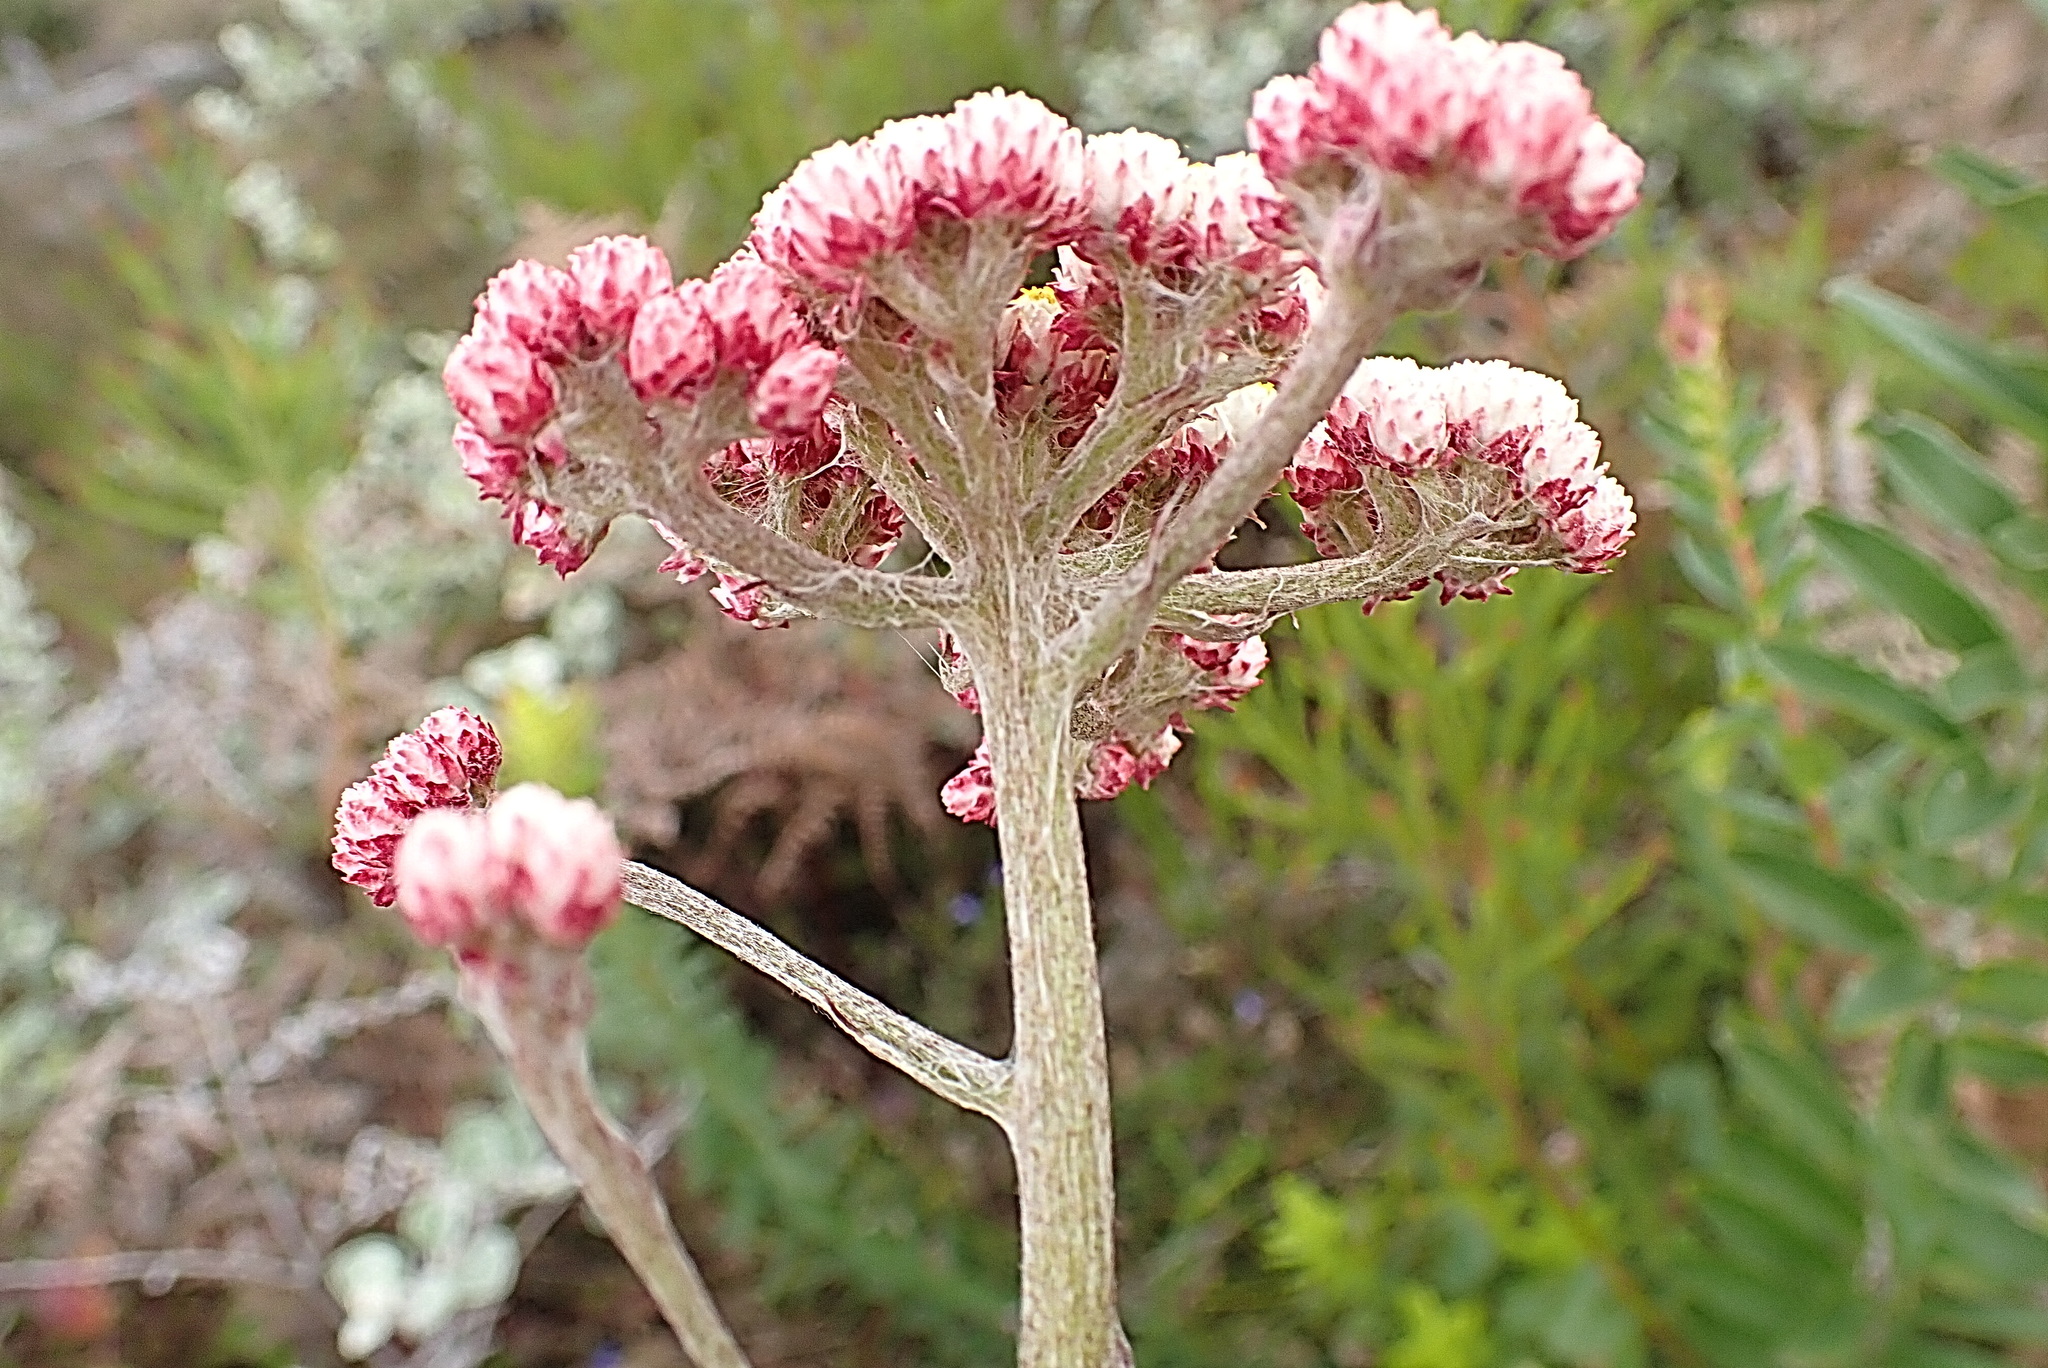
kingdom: Plantae
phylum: Tracheophyta
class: Magnoliopsida
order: Asterales
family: Asteraceae
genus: Helichrysum
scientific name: Helichrysum felinum
